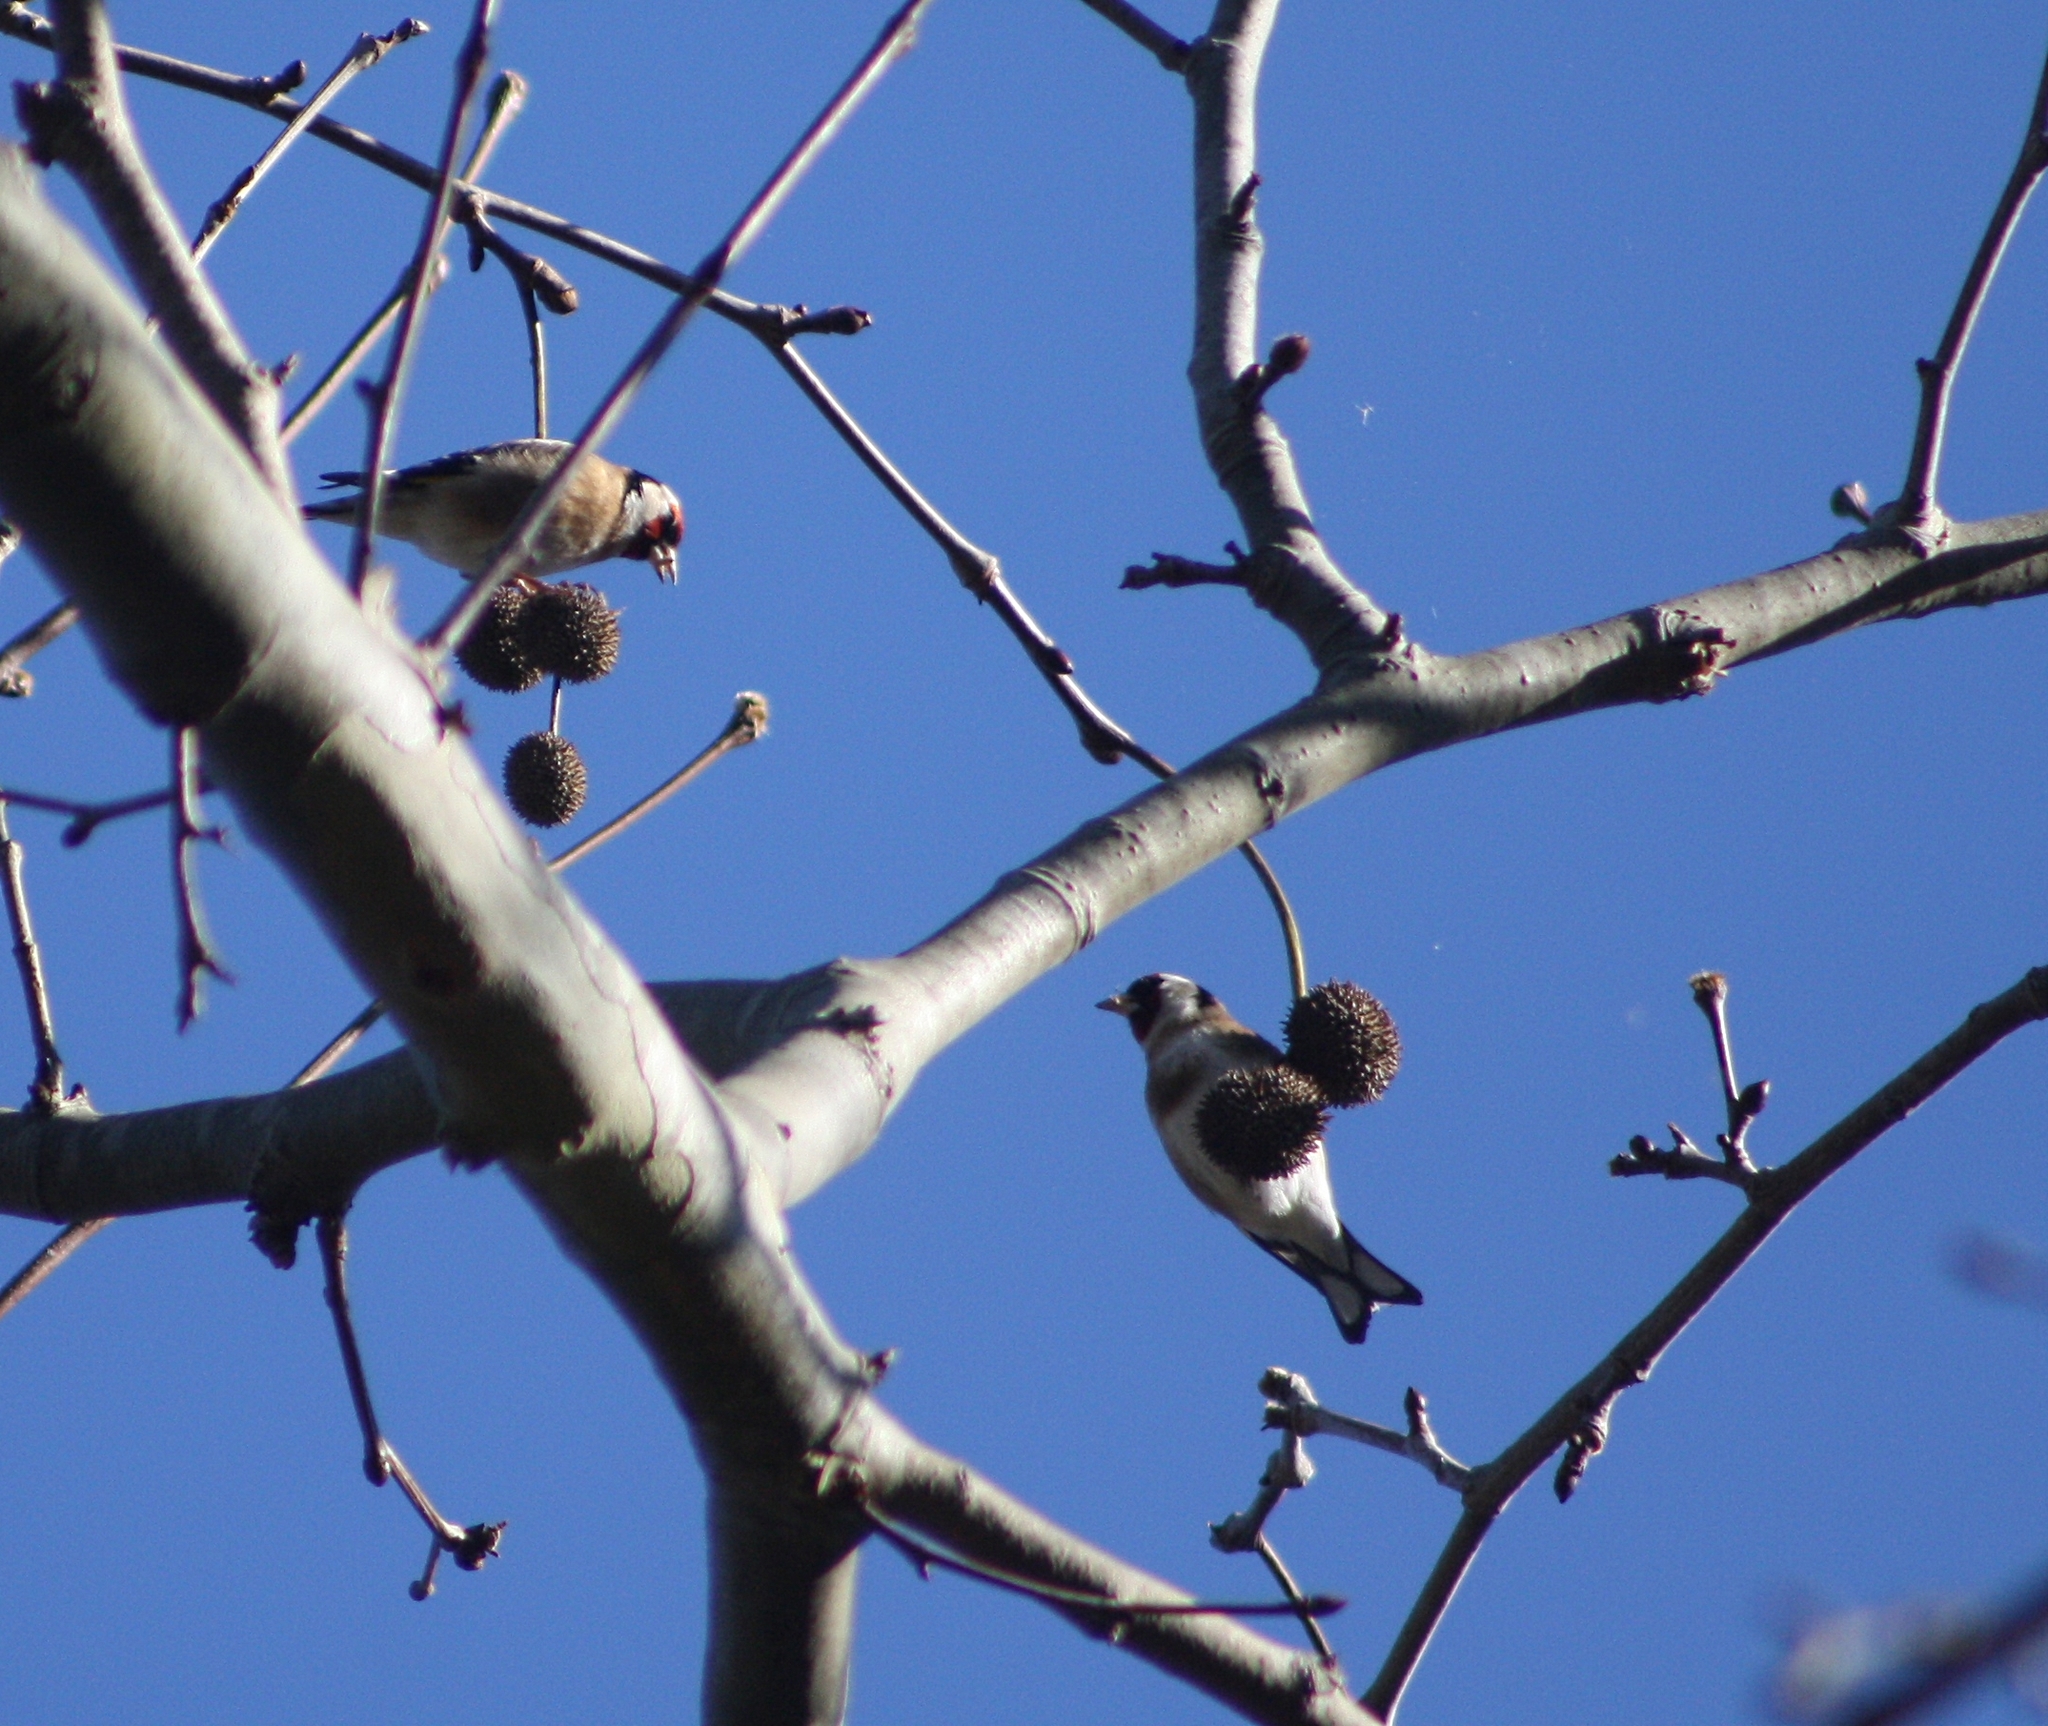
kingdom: Animalia
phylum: Chordata
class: Aves
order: Passeriformes
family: Fringillidae
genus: Carduelis
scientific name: Carduelis carduelis
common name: European goldfinch
